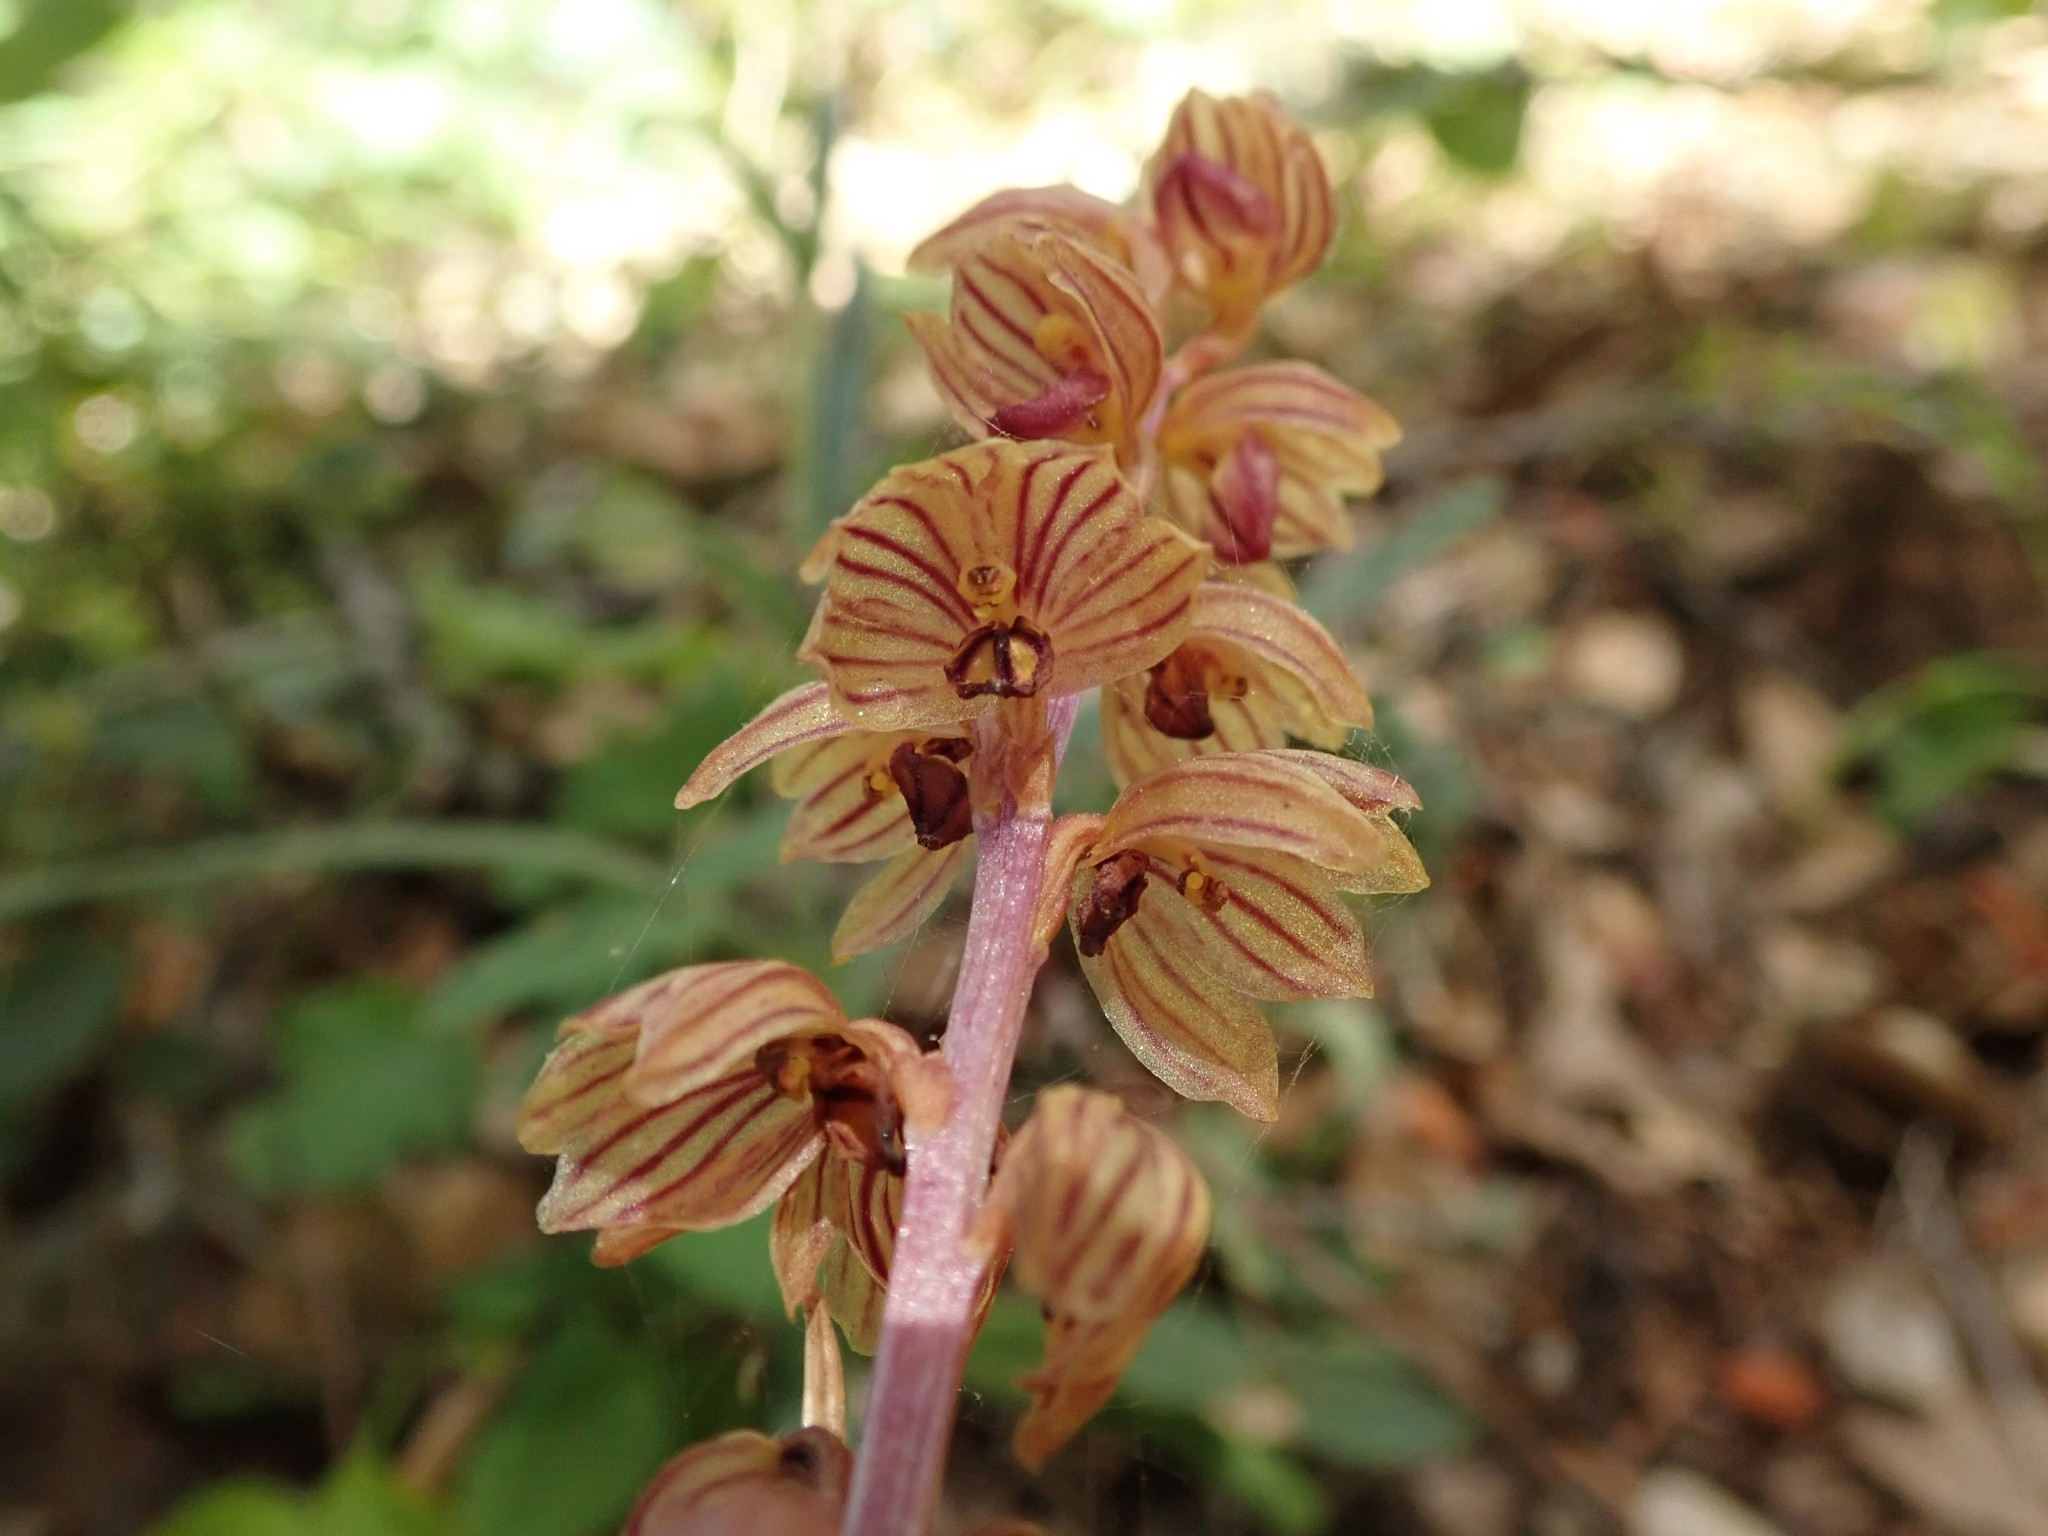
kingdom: Plantae
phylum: Tracheophyta
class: Liliopsida
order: Asparagales
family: Orchidaceae
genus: Corallorhiza
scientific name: Corallorhiza striata
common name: Hooded coralroot
